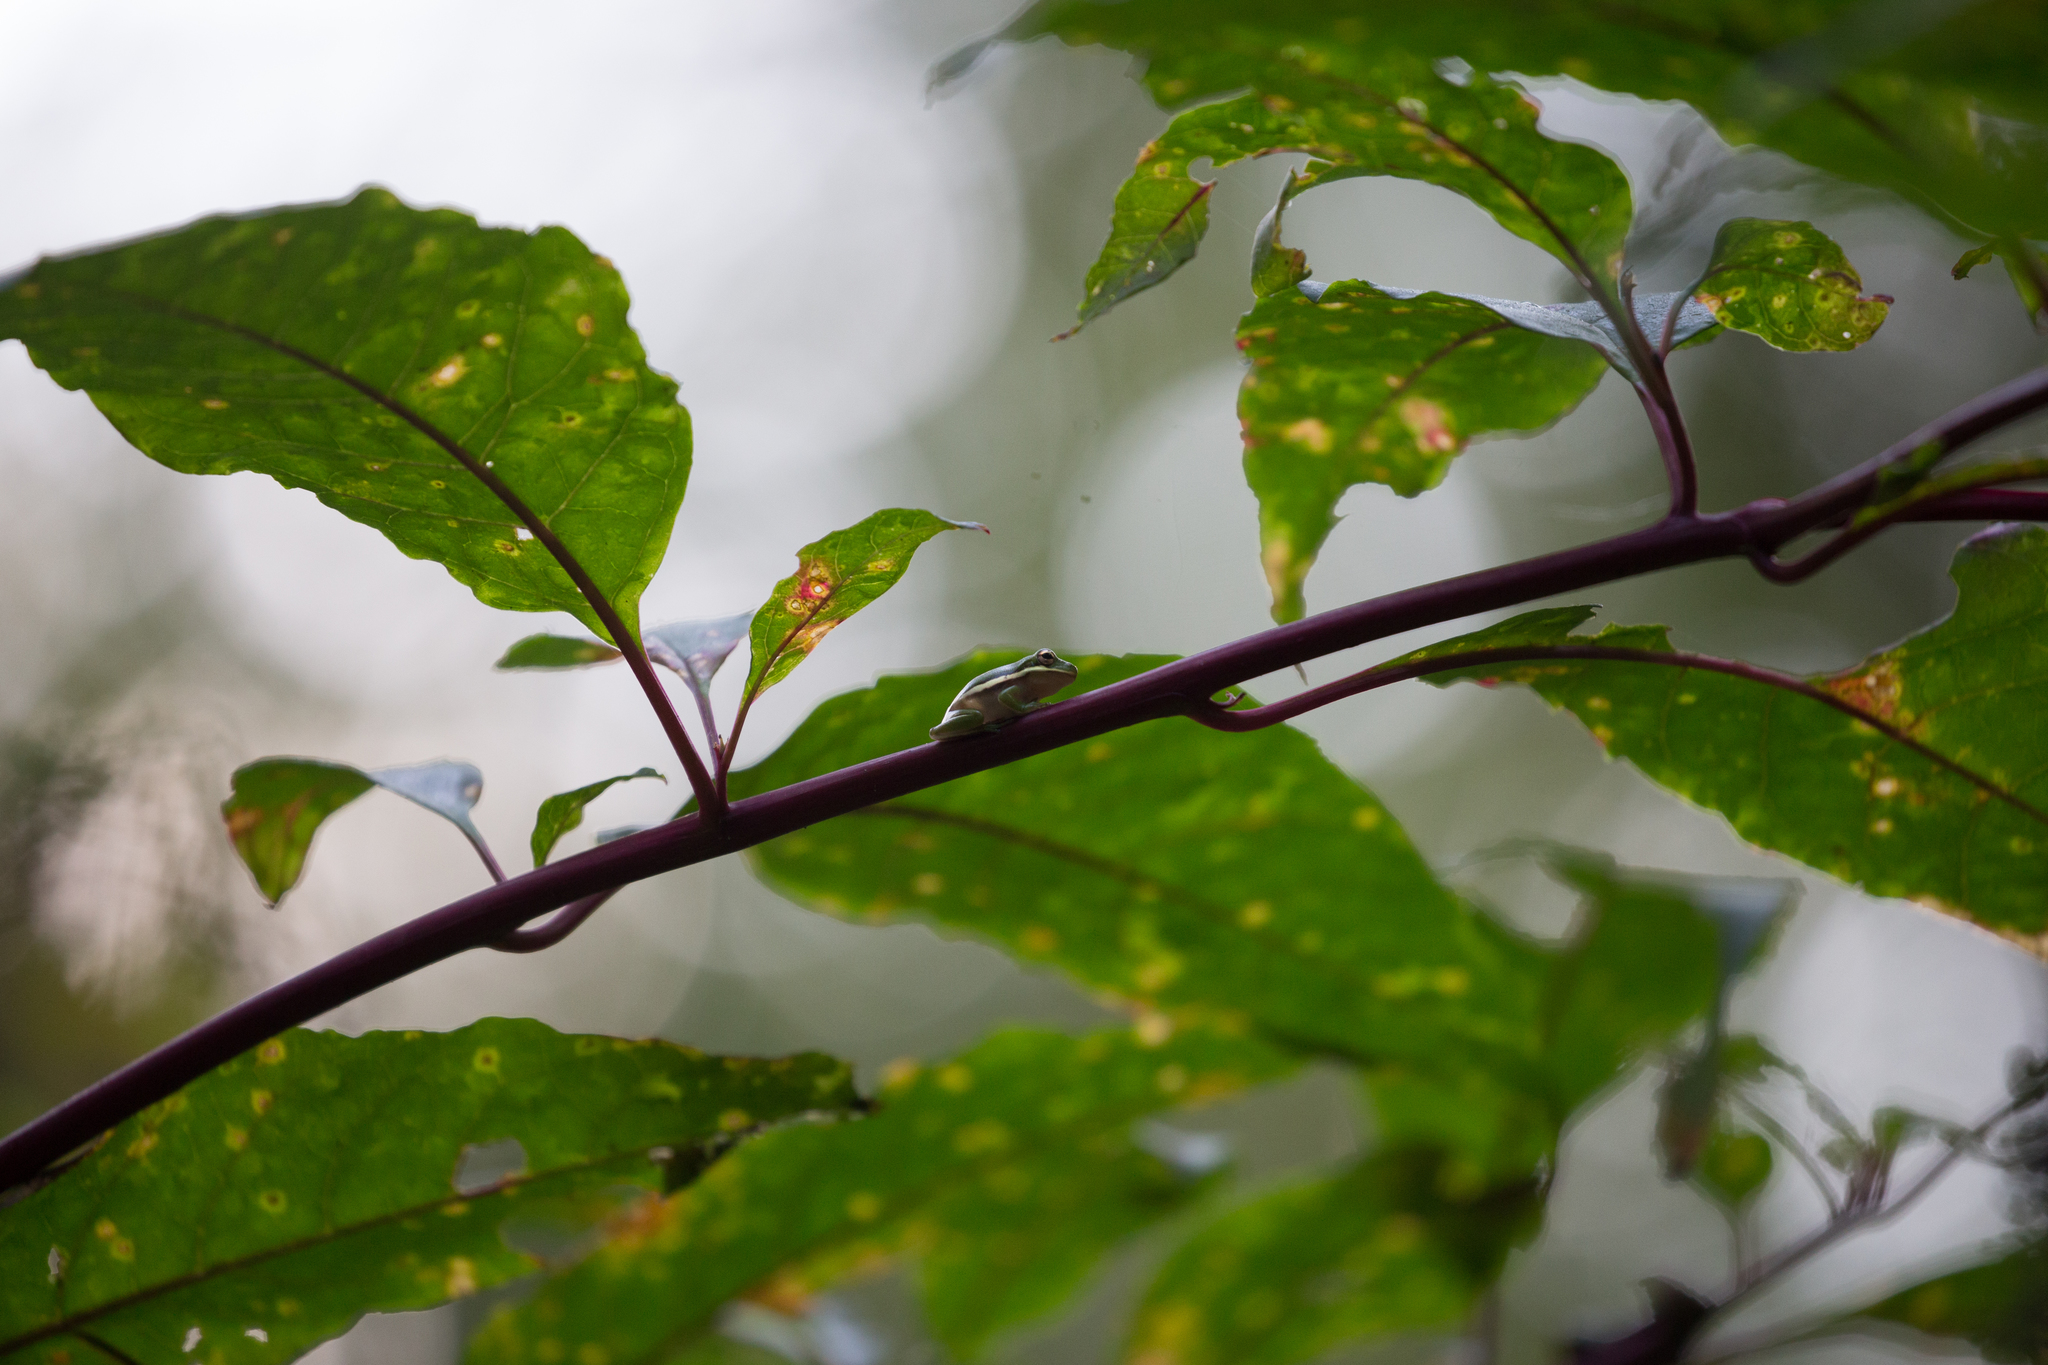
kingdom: Animalia
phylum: Chordata
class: Amphibia
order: Anura
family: Hylidae
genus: Dryophytes
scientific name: Dryophytes cinereus
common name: Green treefrog
